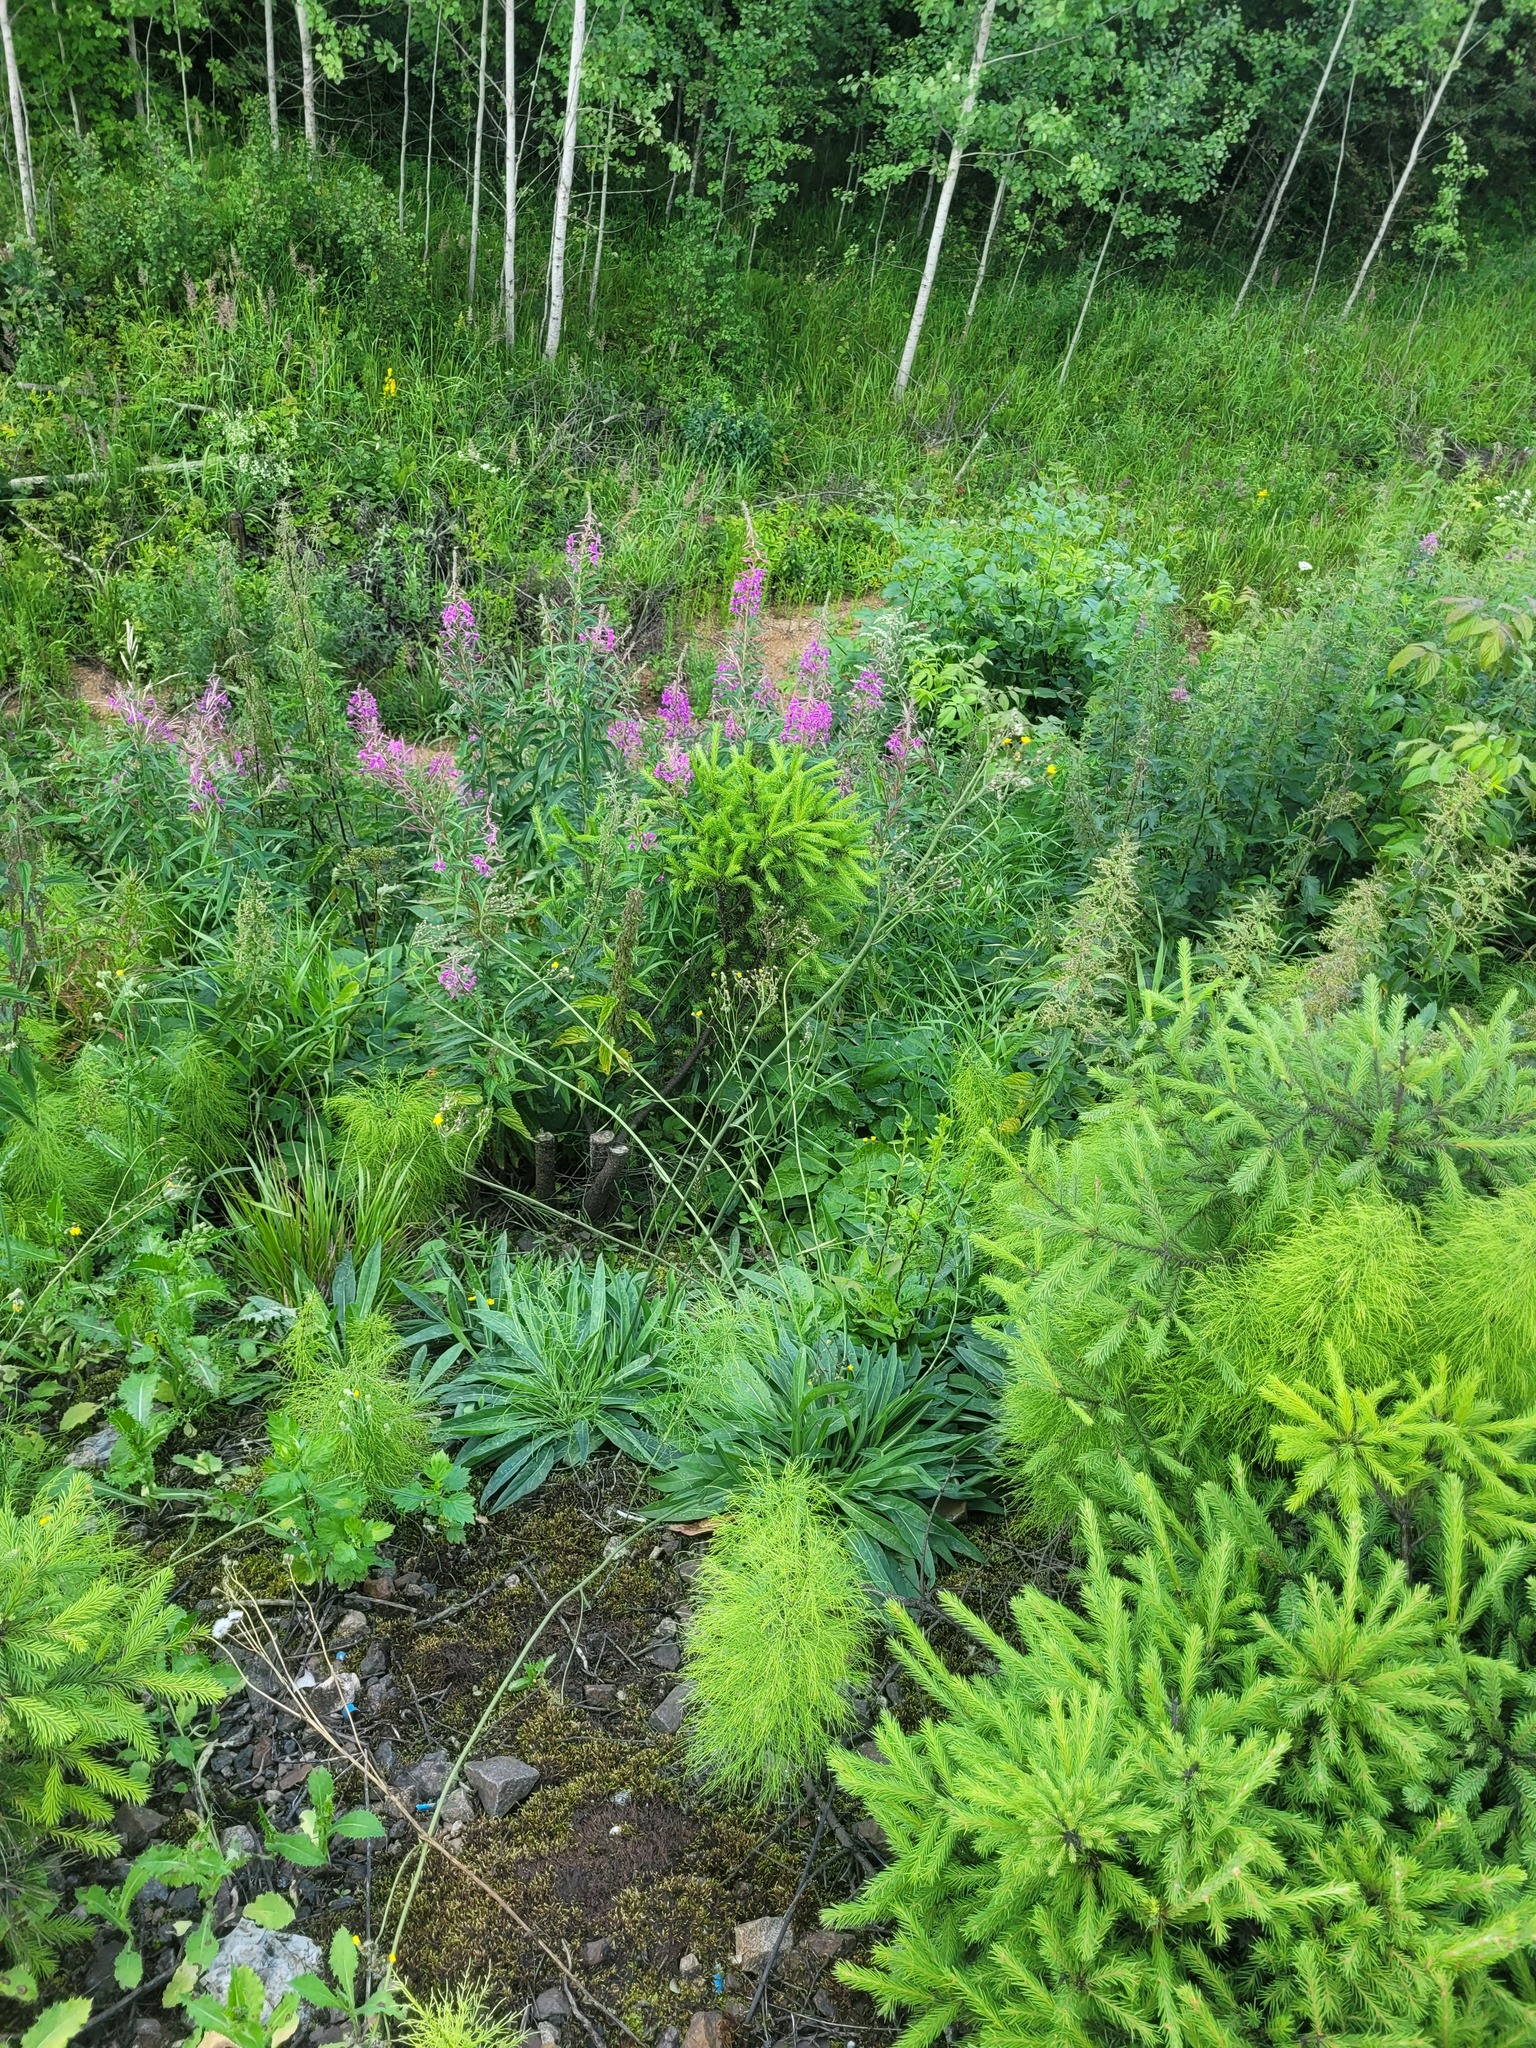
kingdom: Plantae
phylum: Tracheophyta
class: Magnoliopsida
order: Myrtales
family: Onagraceae
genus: Chamaenerion
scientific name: Chamaenerion angustifolium
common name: Fireweed
